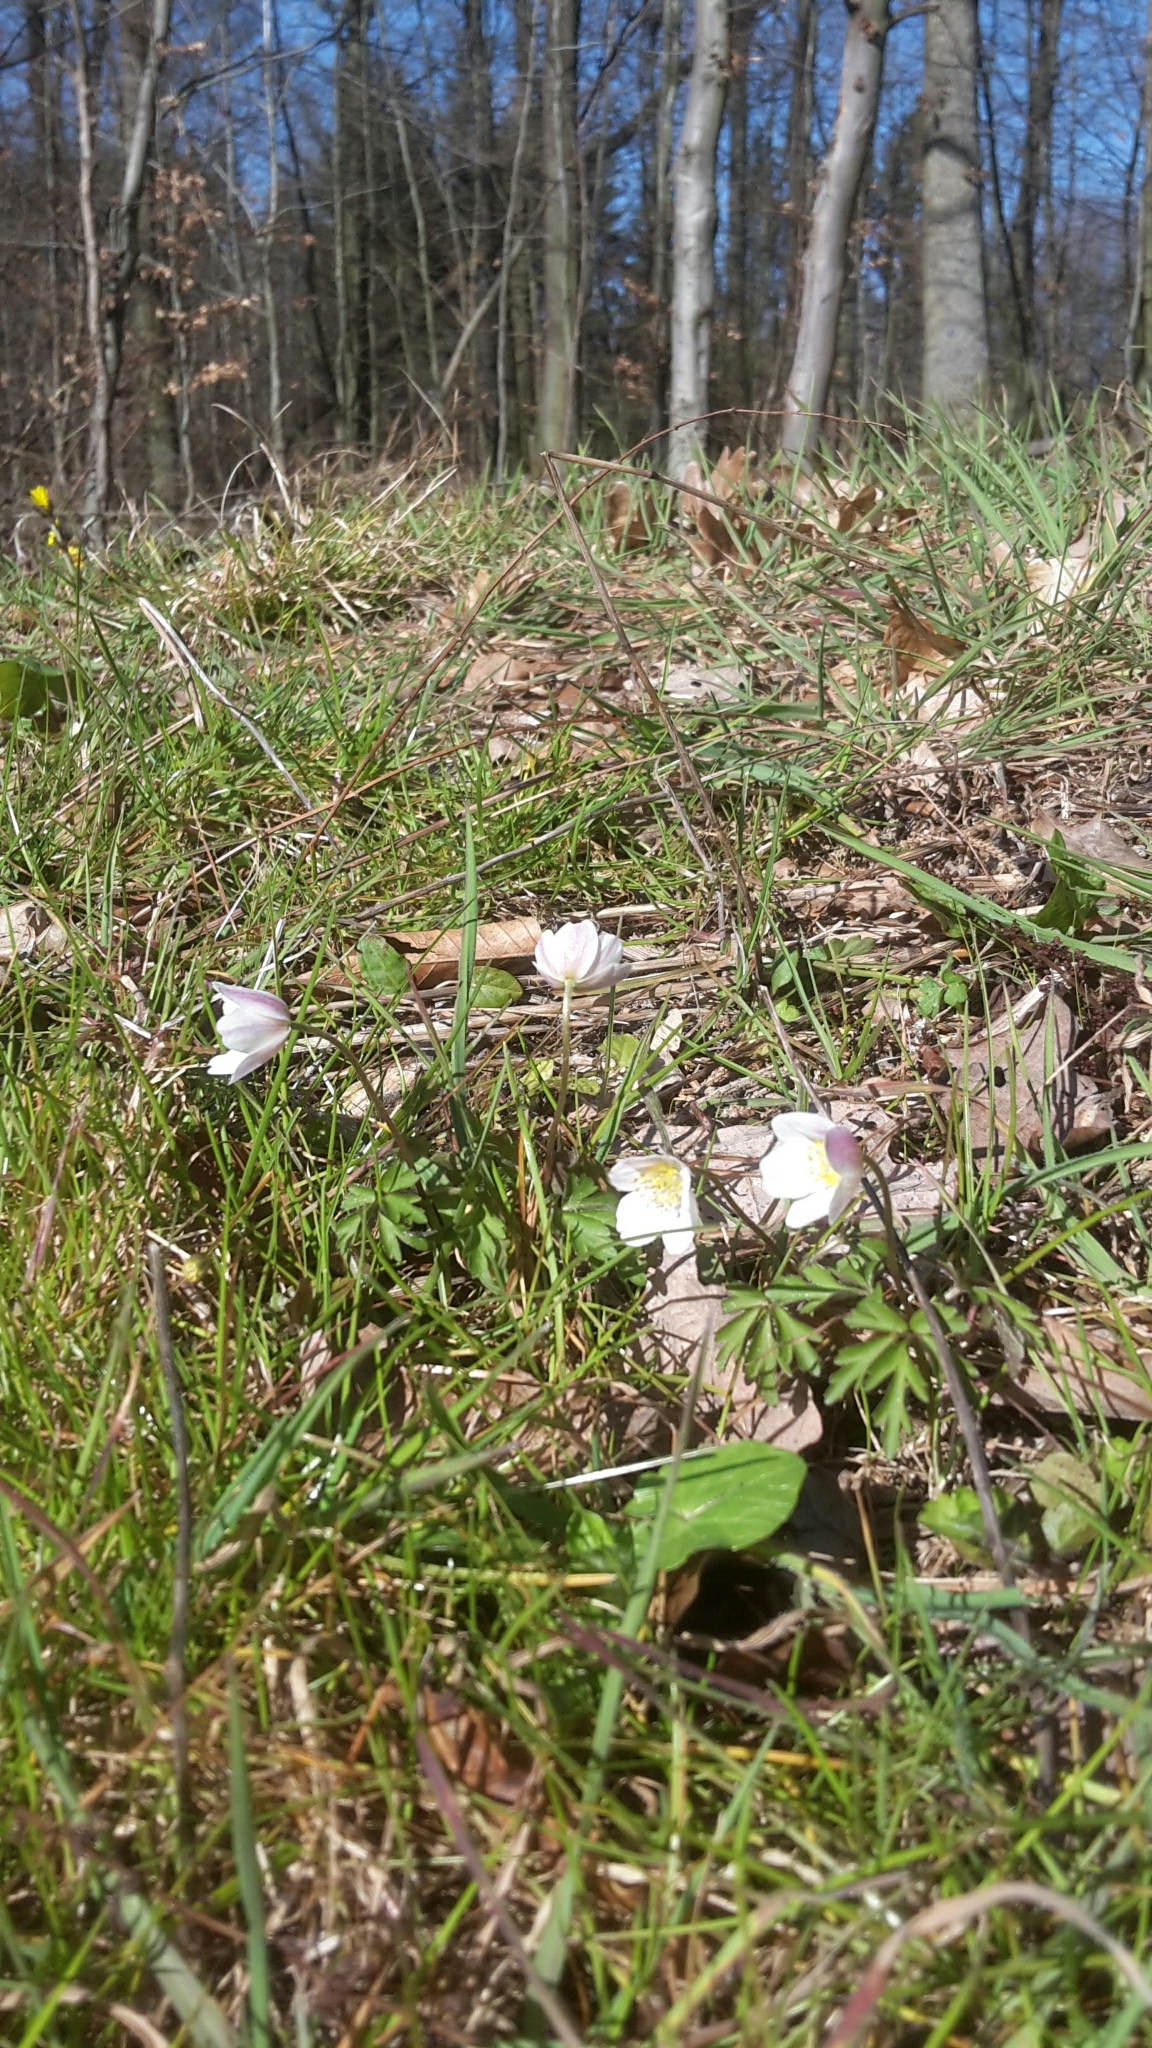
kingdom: Plantae
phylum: Tracheophyta
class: Magnoliopsida
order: Ranunculales
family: Ranunculaceae
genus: Anemone
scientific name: Anemone nemorosa
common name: Wood anemone
